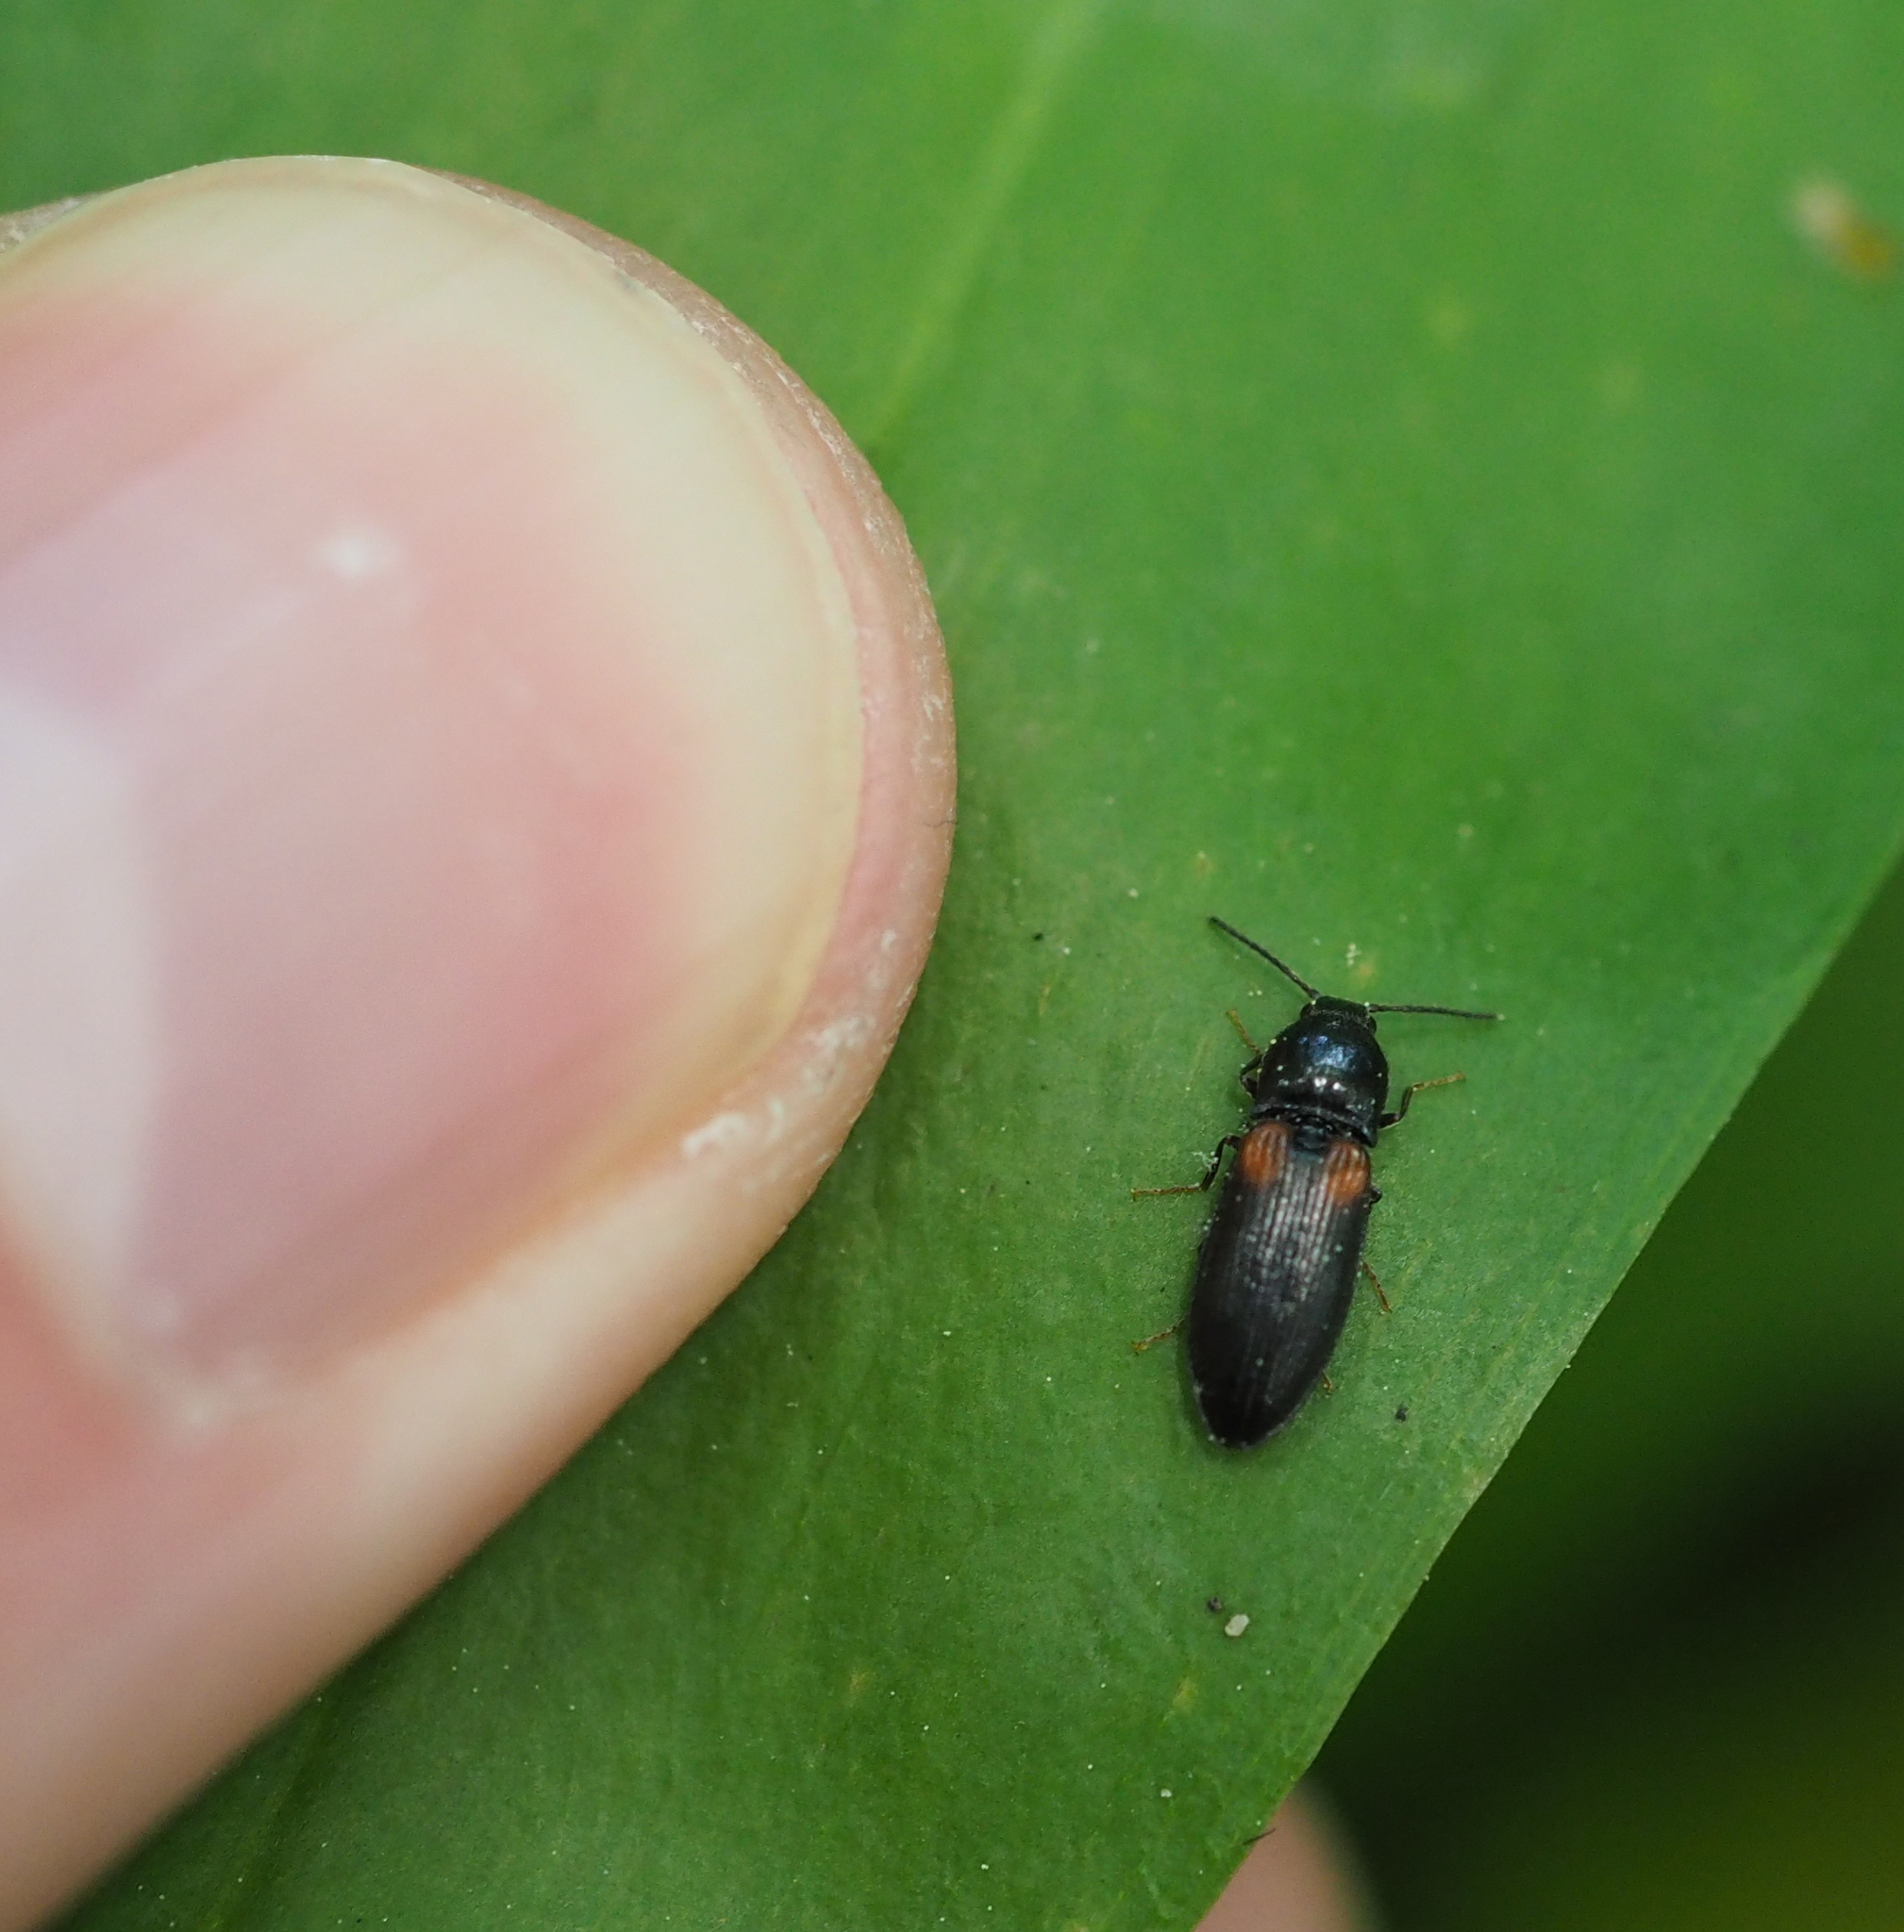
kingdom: Animalia
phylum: Arthropoda
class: Insecta
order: Coleoptera
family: Elateridae
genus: Calambus
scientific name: Calambus bipustulatus
